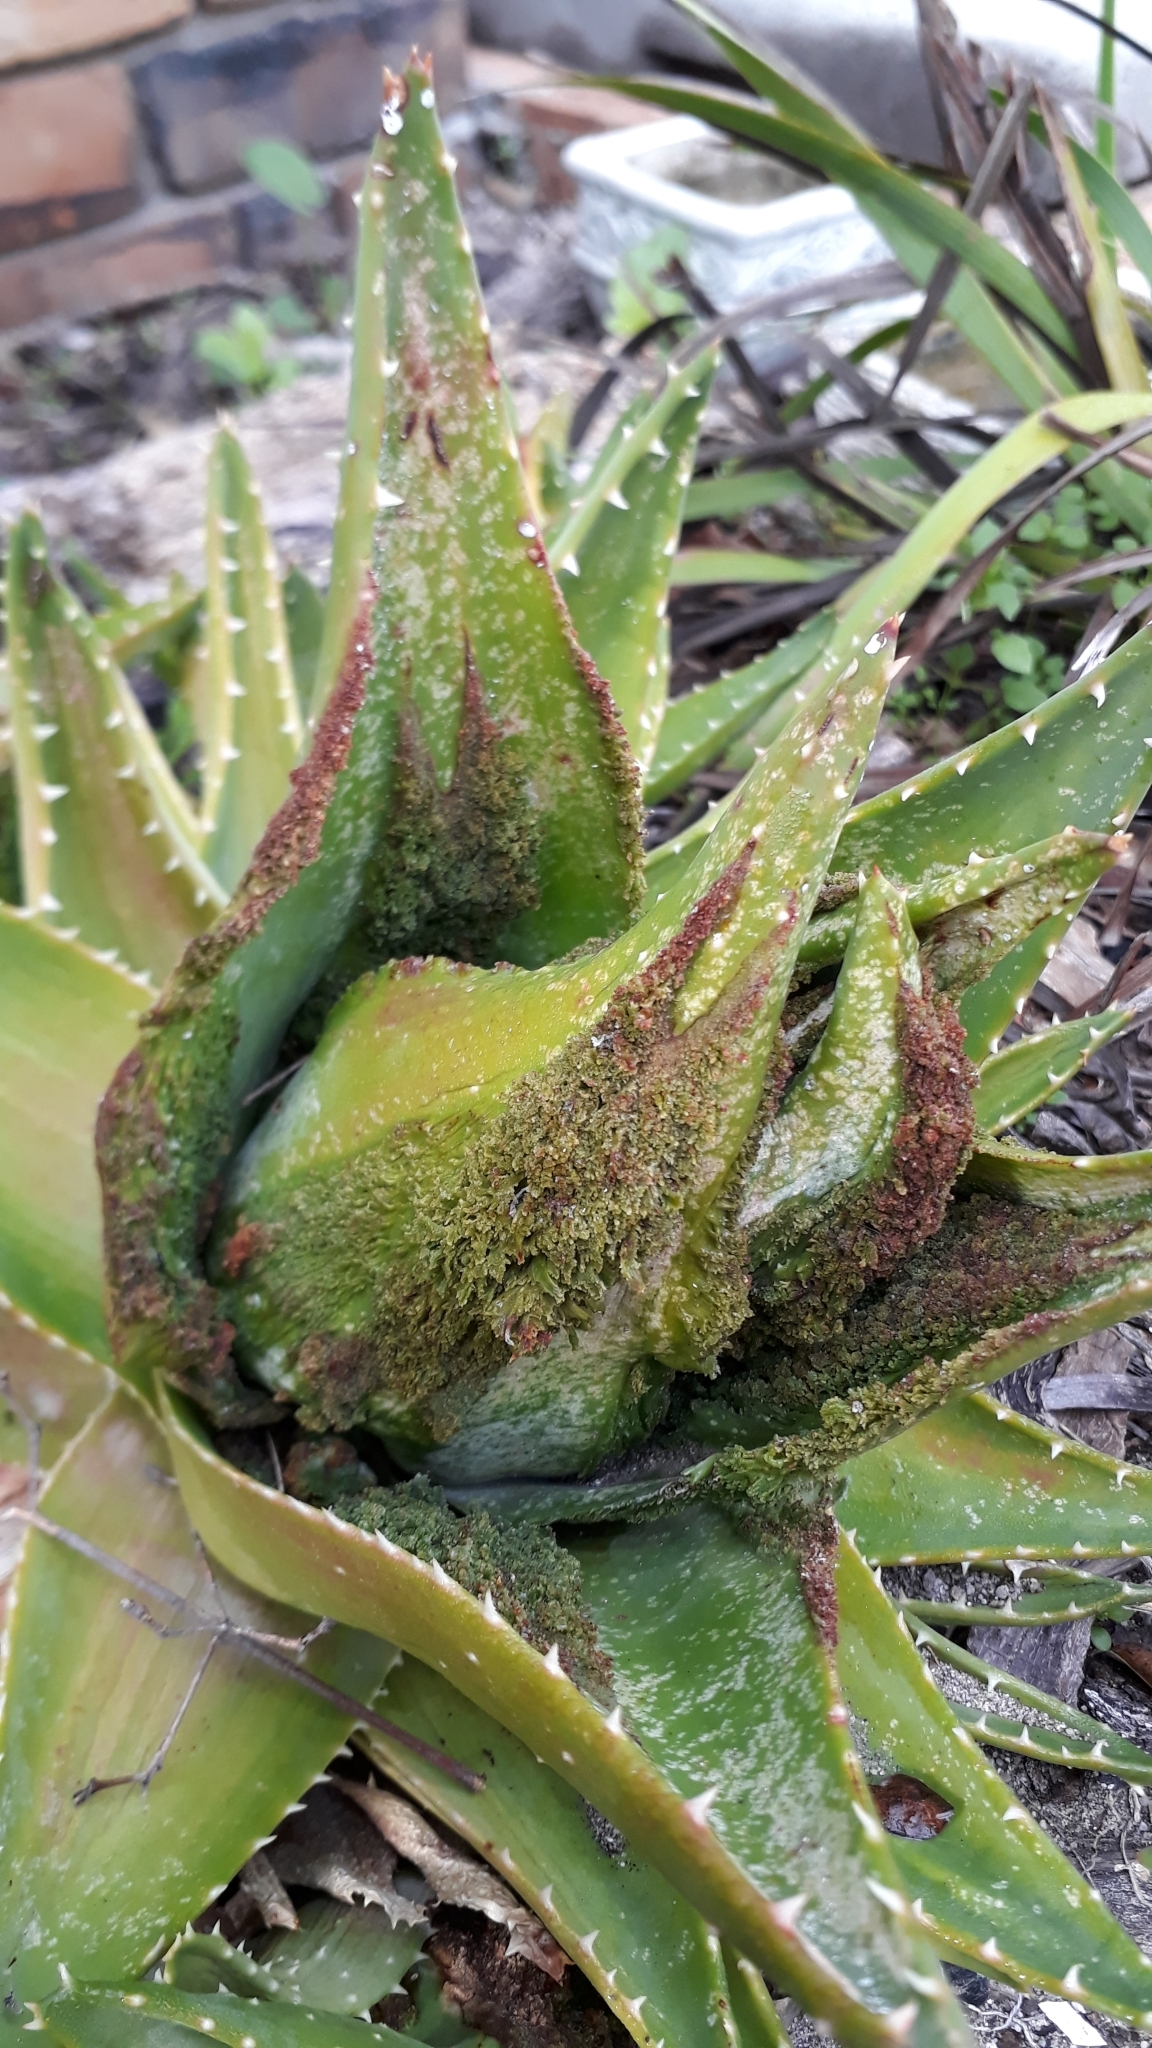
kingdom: Animalia
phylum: Arthropoda
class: Arachnida
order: Trombidiformes
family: Eriophyidae
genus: Aceria
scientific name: Aceria aloinis
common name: Mite
